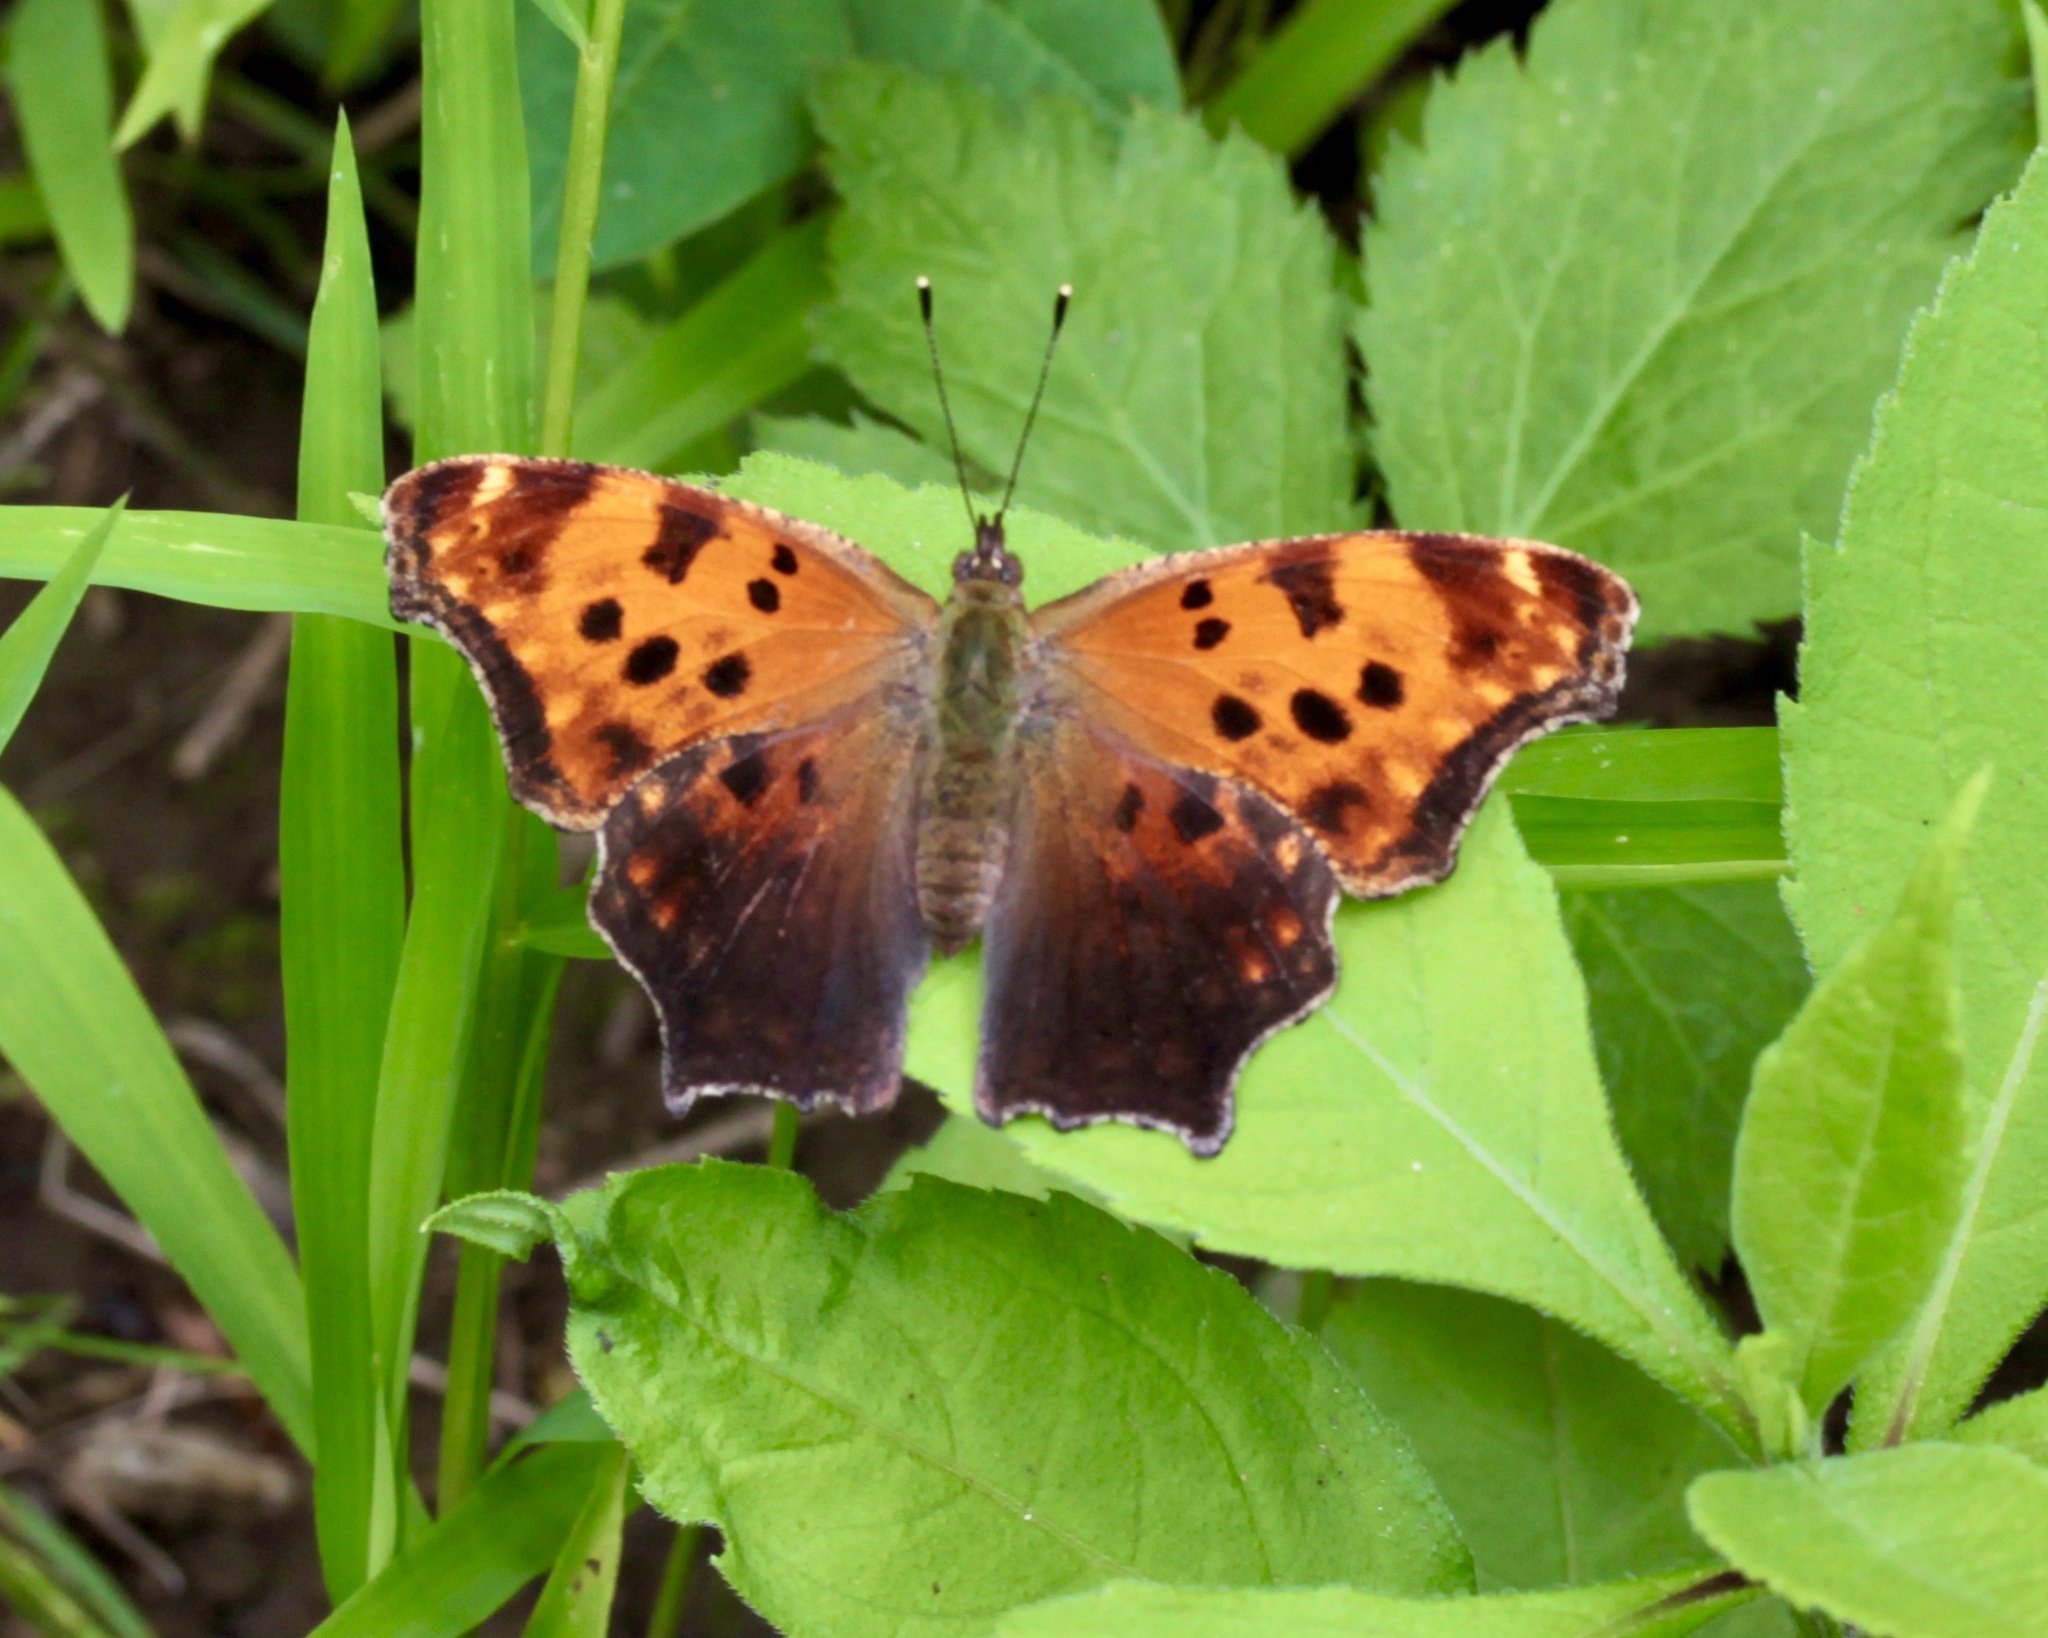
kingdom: Animalia
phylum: Arthropoda
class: Insecta
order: Lepidoptera
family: Nymphalidae
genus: Polygonia
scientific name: Polygonia comma
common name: Eastern comma
